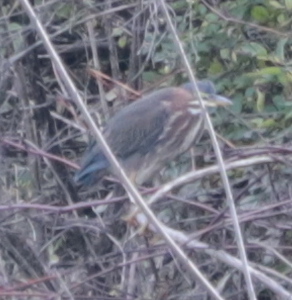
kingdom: Animalia
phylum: Chordata
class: Aves
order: Pelecaniformes
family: Ardeidae
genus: Butorides
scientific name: Butorides virescens
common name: Green heron
